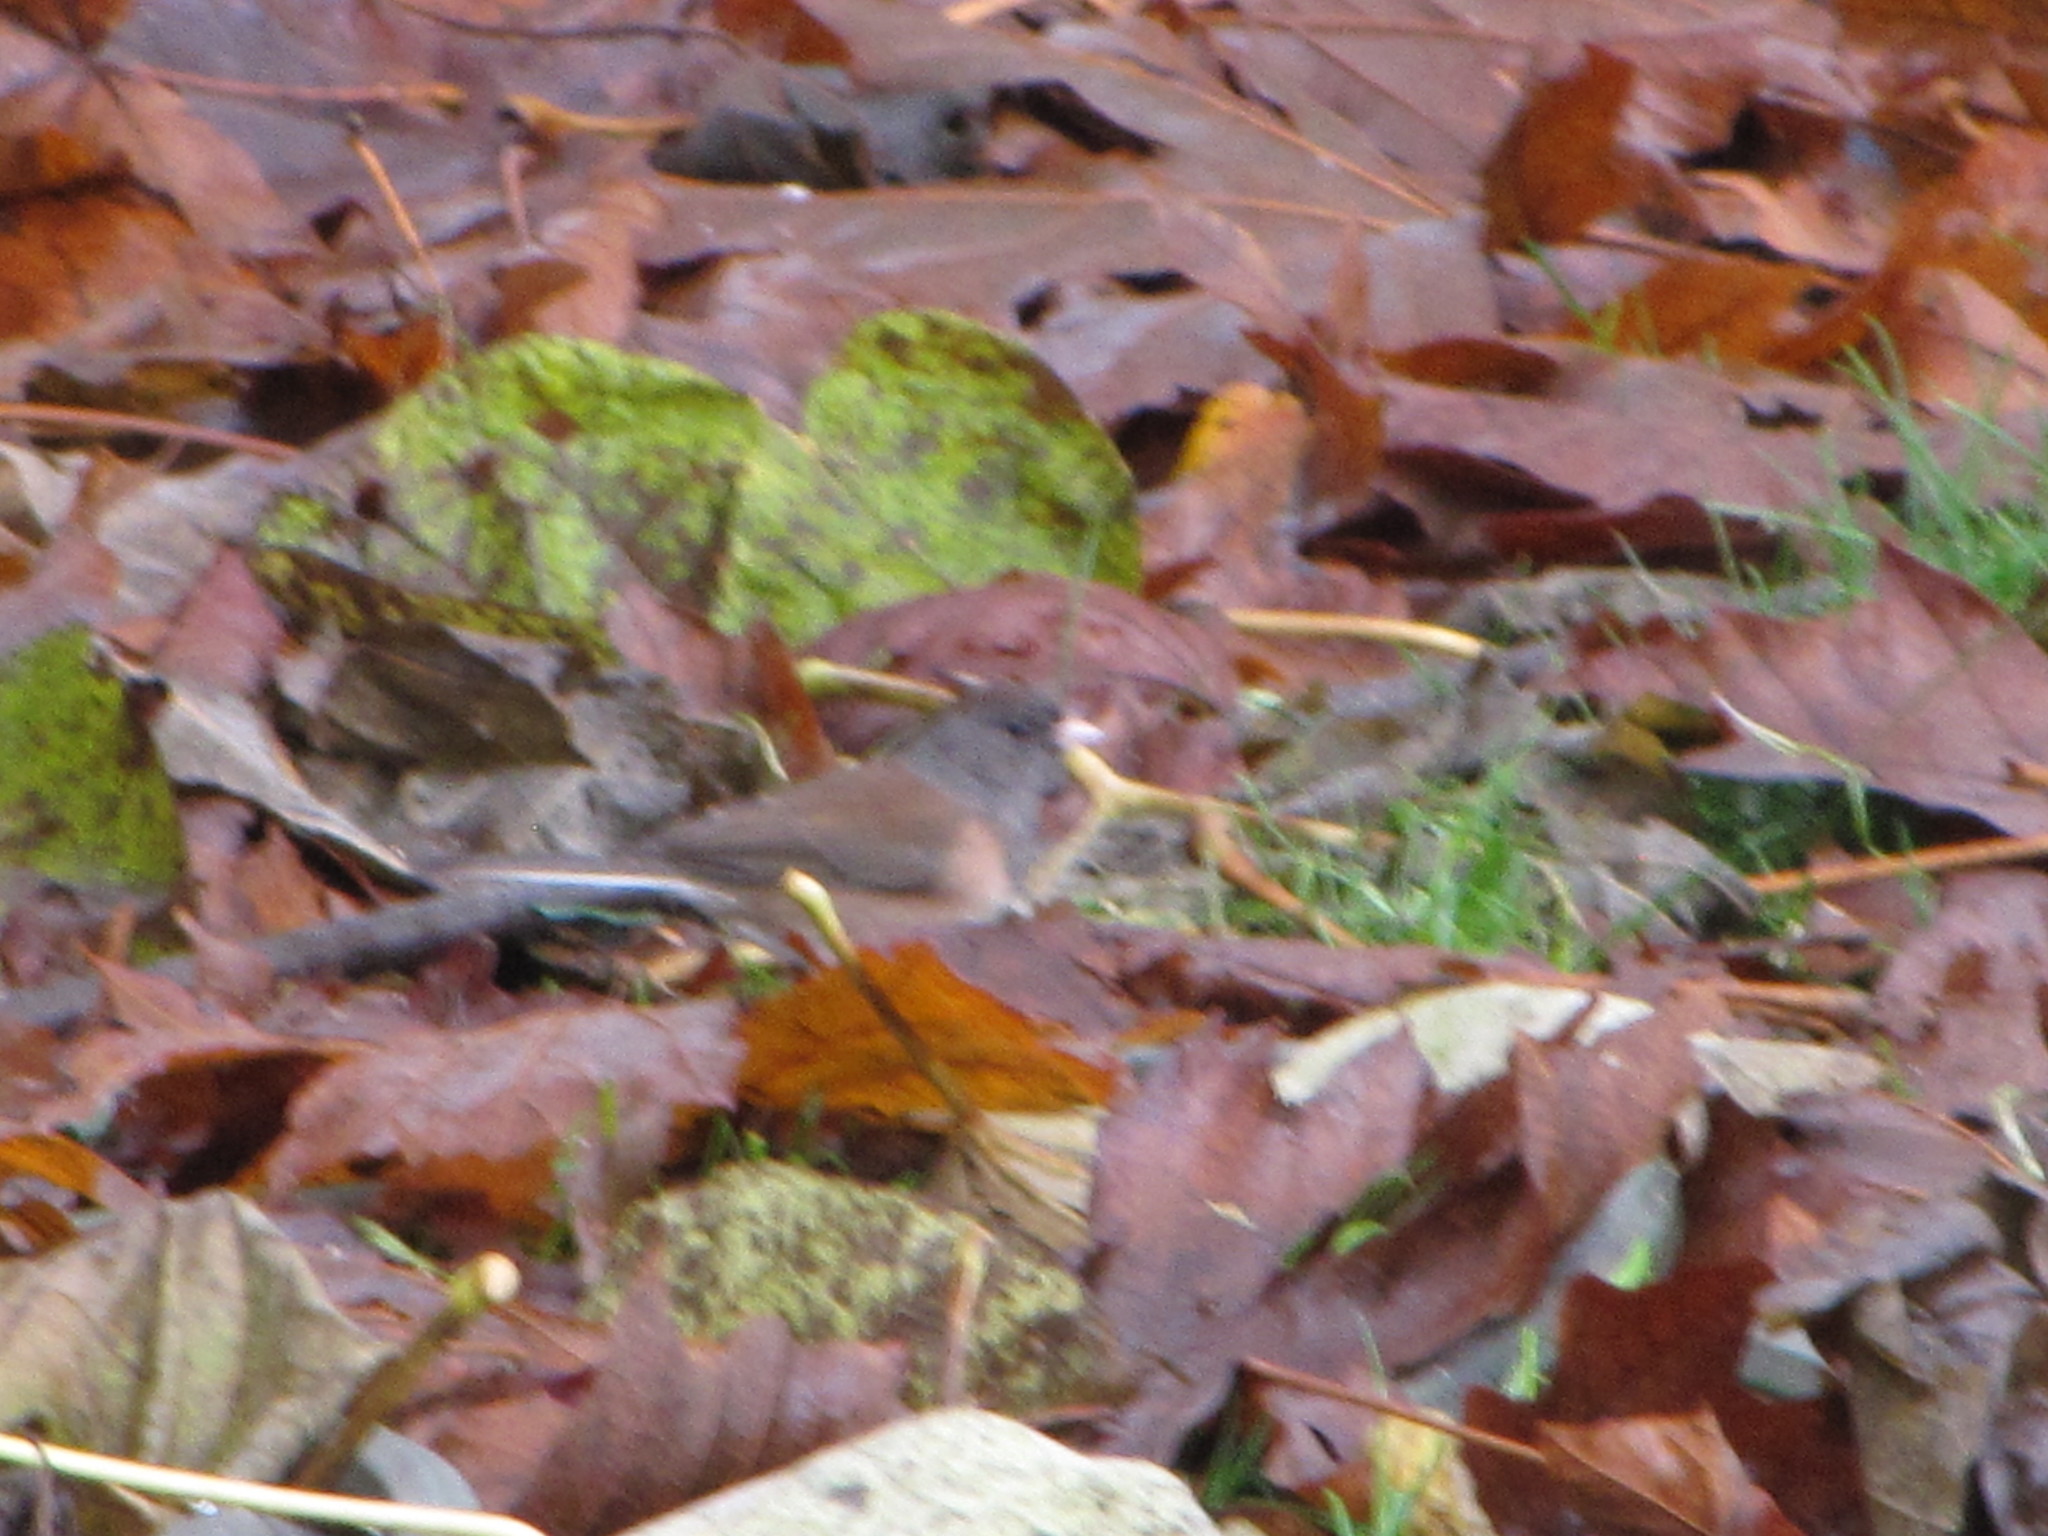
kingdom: Animalia
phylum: Chordata
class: Aves
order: Passeriformes
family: Passerellidae
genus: Junco
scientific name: Junco hyemalis
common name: Dark-eyed junco
